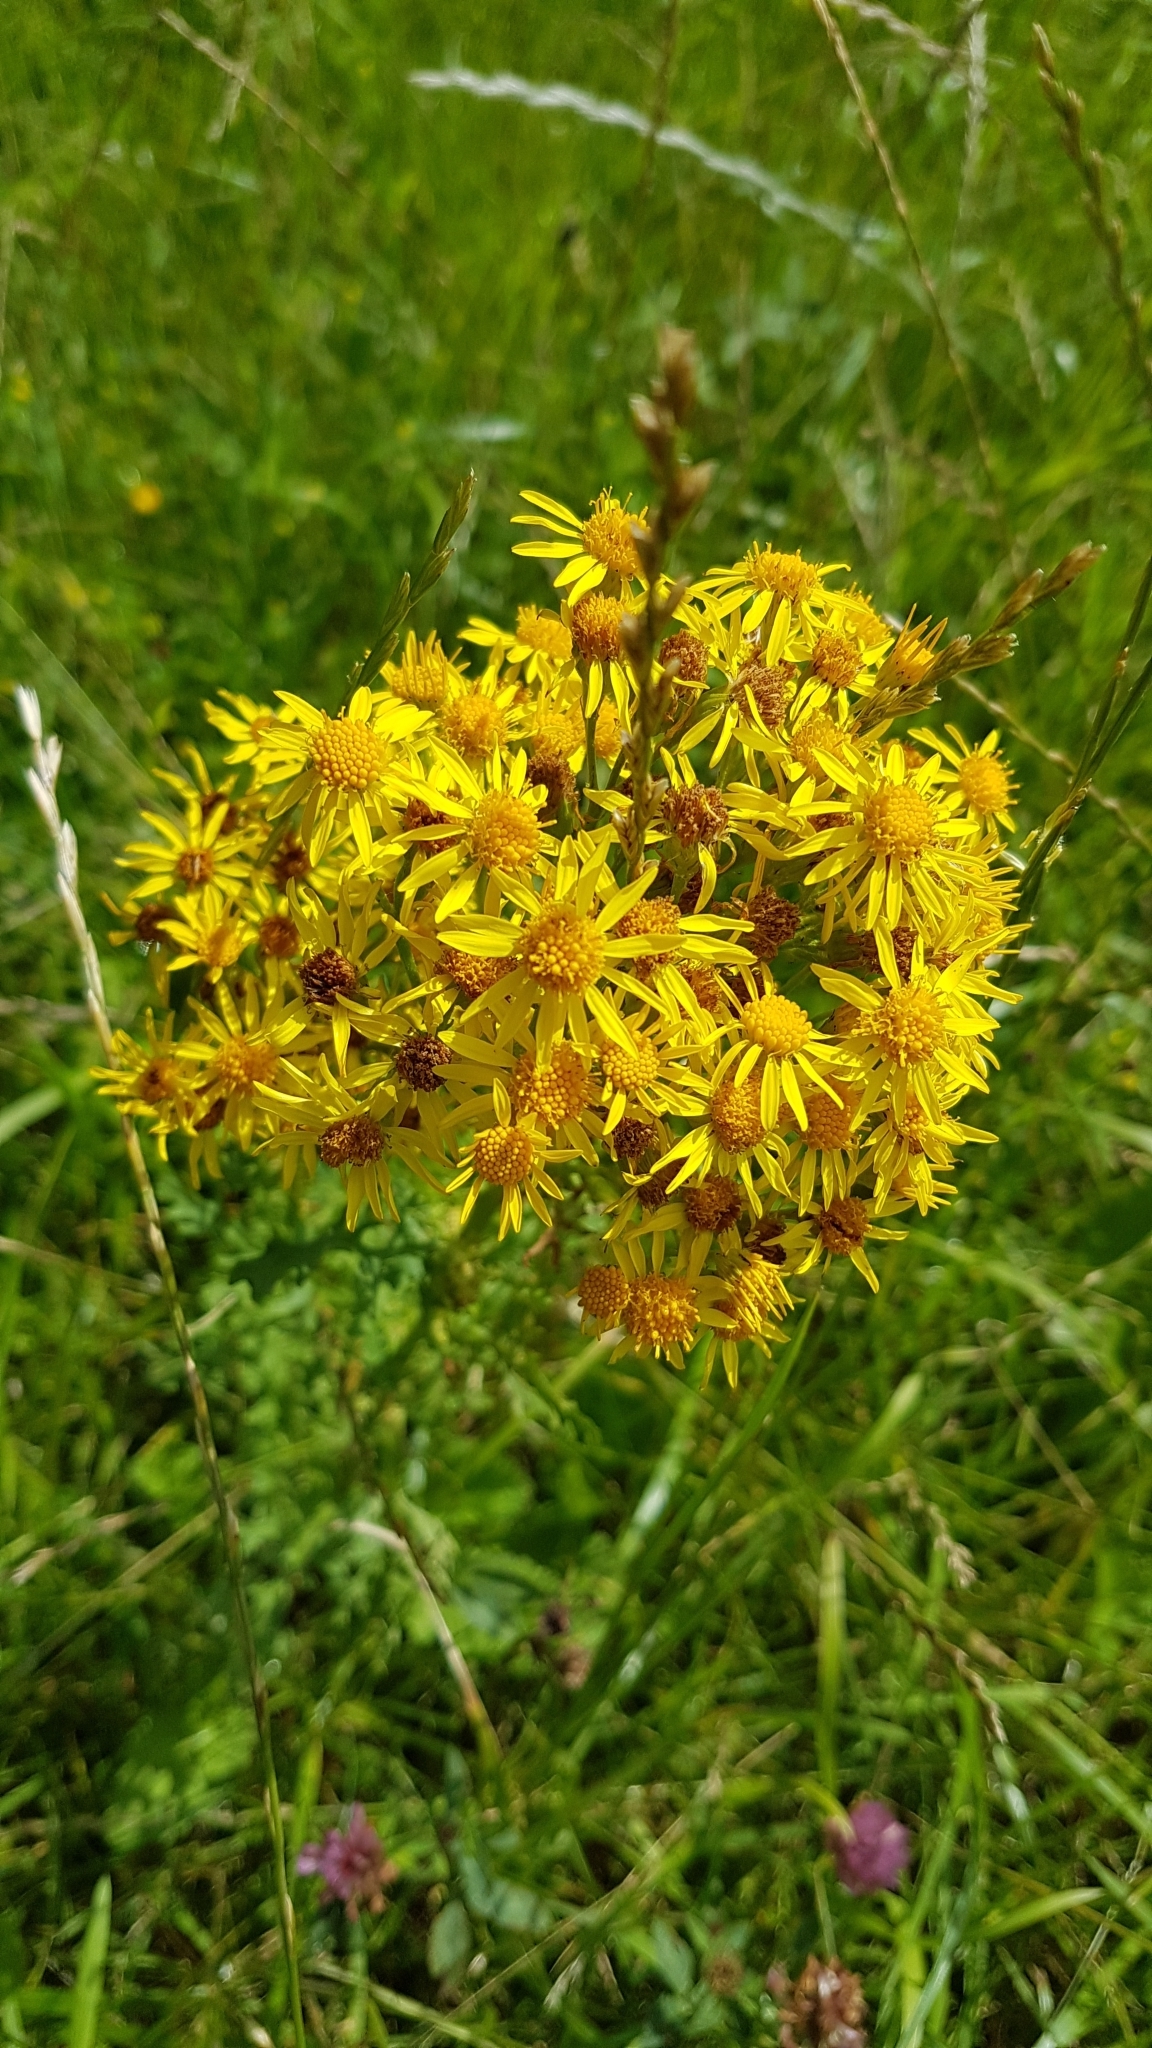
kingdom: Plantae
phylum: Tracheophyta
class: Magnoliopsida
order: Asterales
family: Asteraceae
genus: Jacobaea
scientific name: Jacobaea vulgaris
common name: Stinking willie
